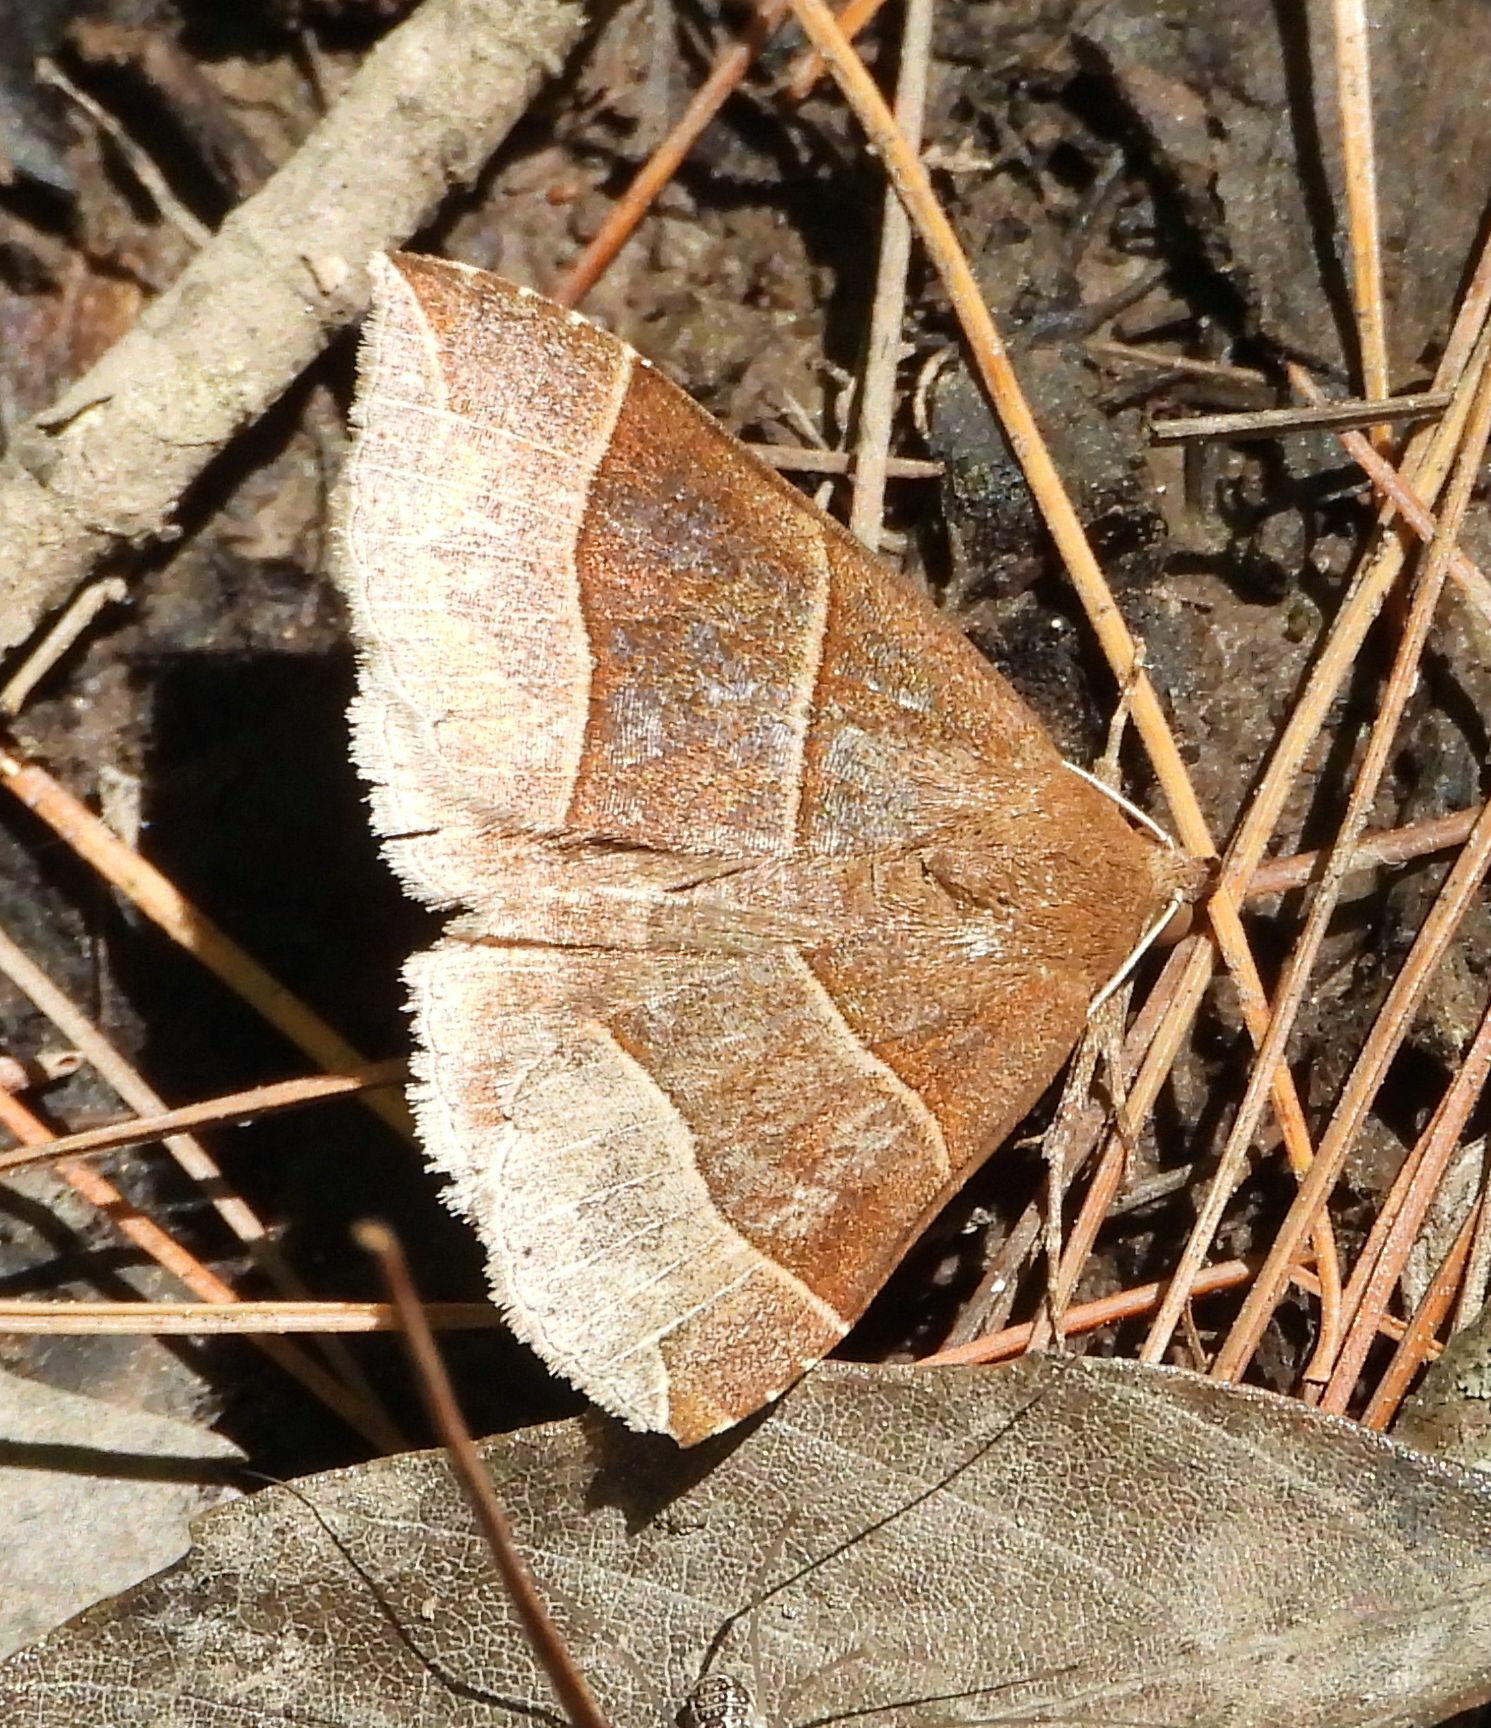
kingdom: Animalia
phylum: Arthropoda
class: Insecta
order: Lepidoptera
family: Erebidae
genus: Parallelia
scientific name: Parallelia bistriaris
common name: Maple looper moth
